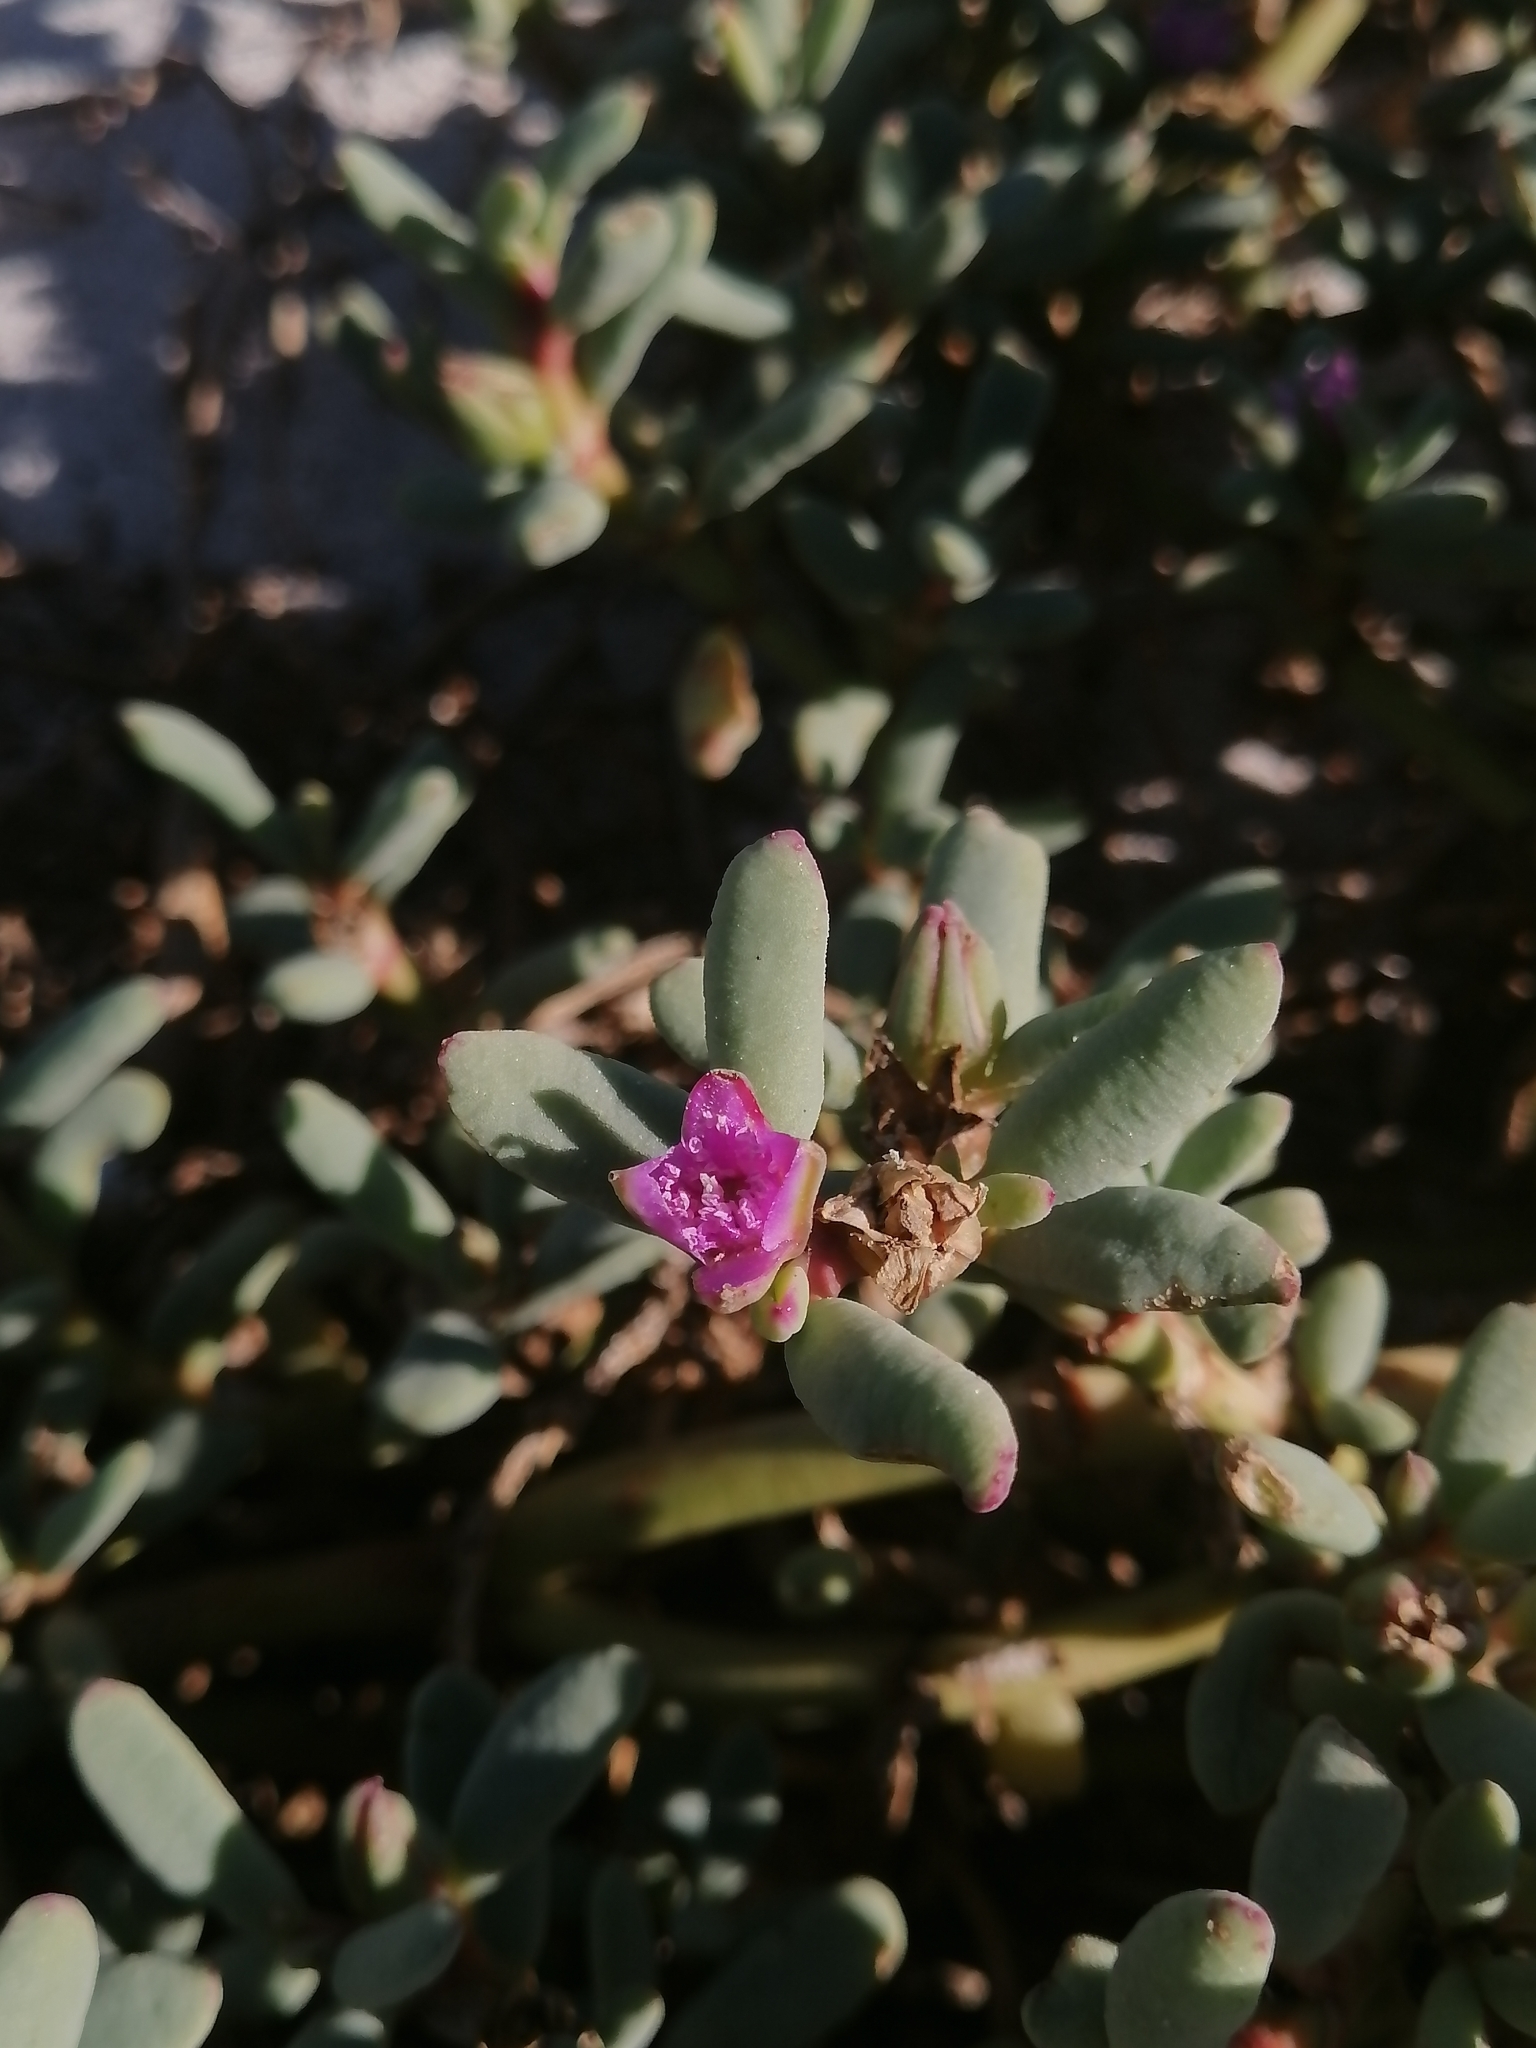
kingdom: Plantae
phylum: Tracheophyta
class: Magnoliopsida
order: Caryophyllales
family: Aizoaceae
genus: Sesuvium
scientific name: Sesuvium revolutifolium
